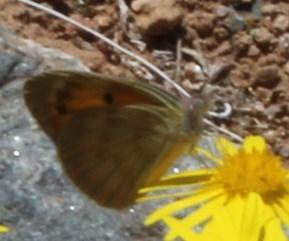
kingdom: Animalia
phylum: Arthropoda
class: Insecta
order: Lepidoptera
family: Pieridae
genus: Colotis
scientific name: Colotis doubledayi
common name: Desert veined tip
